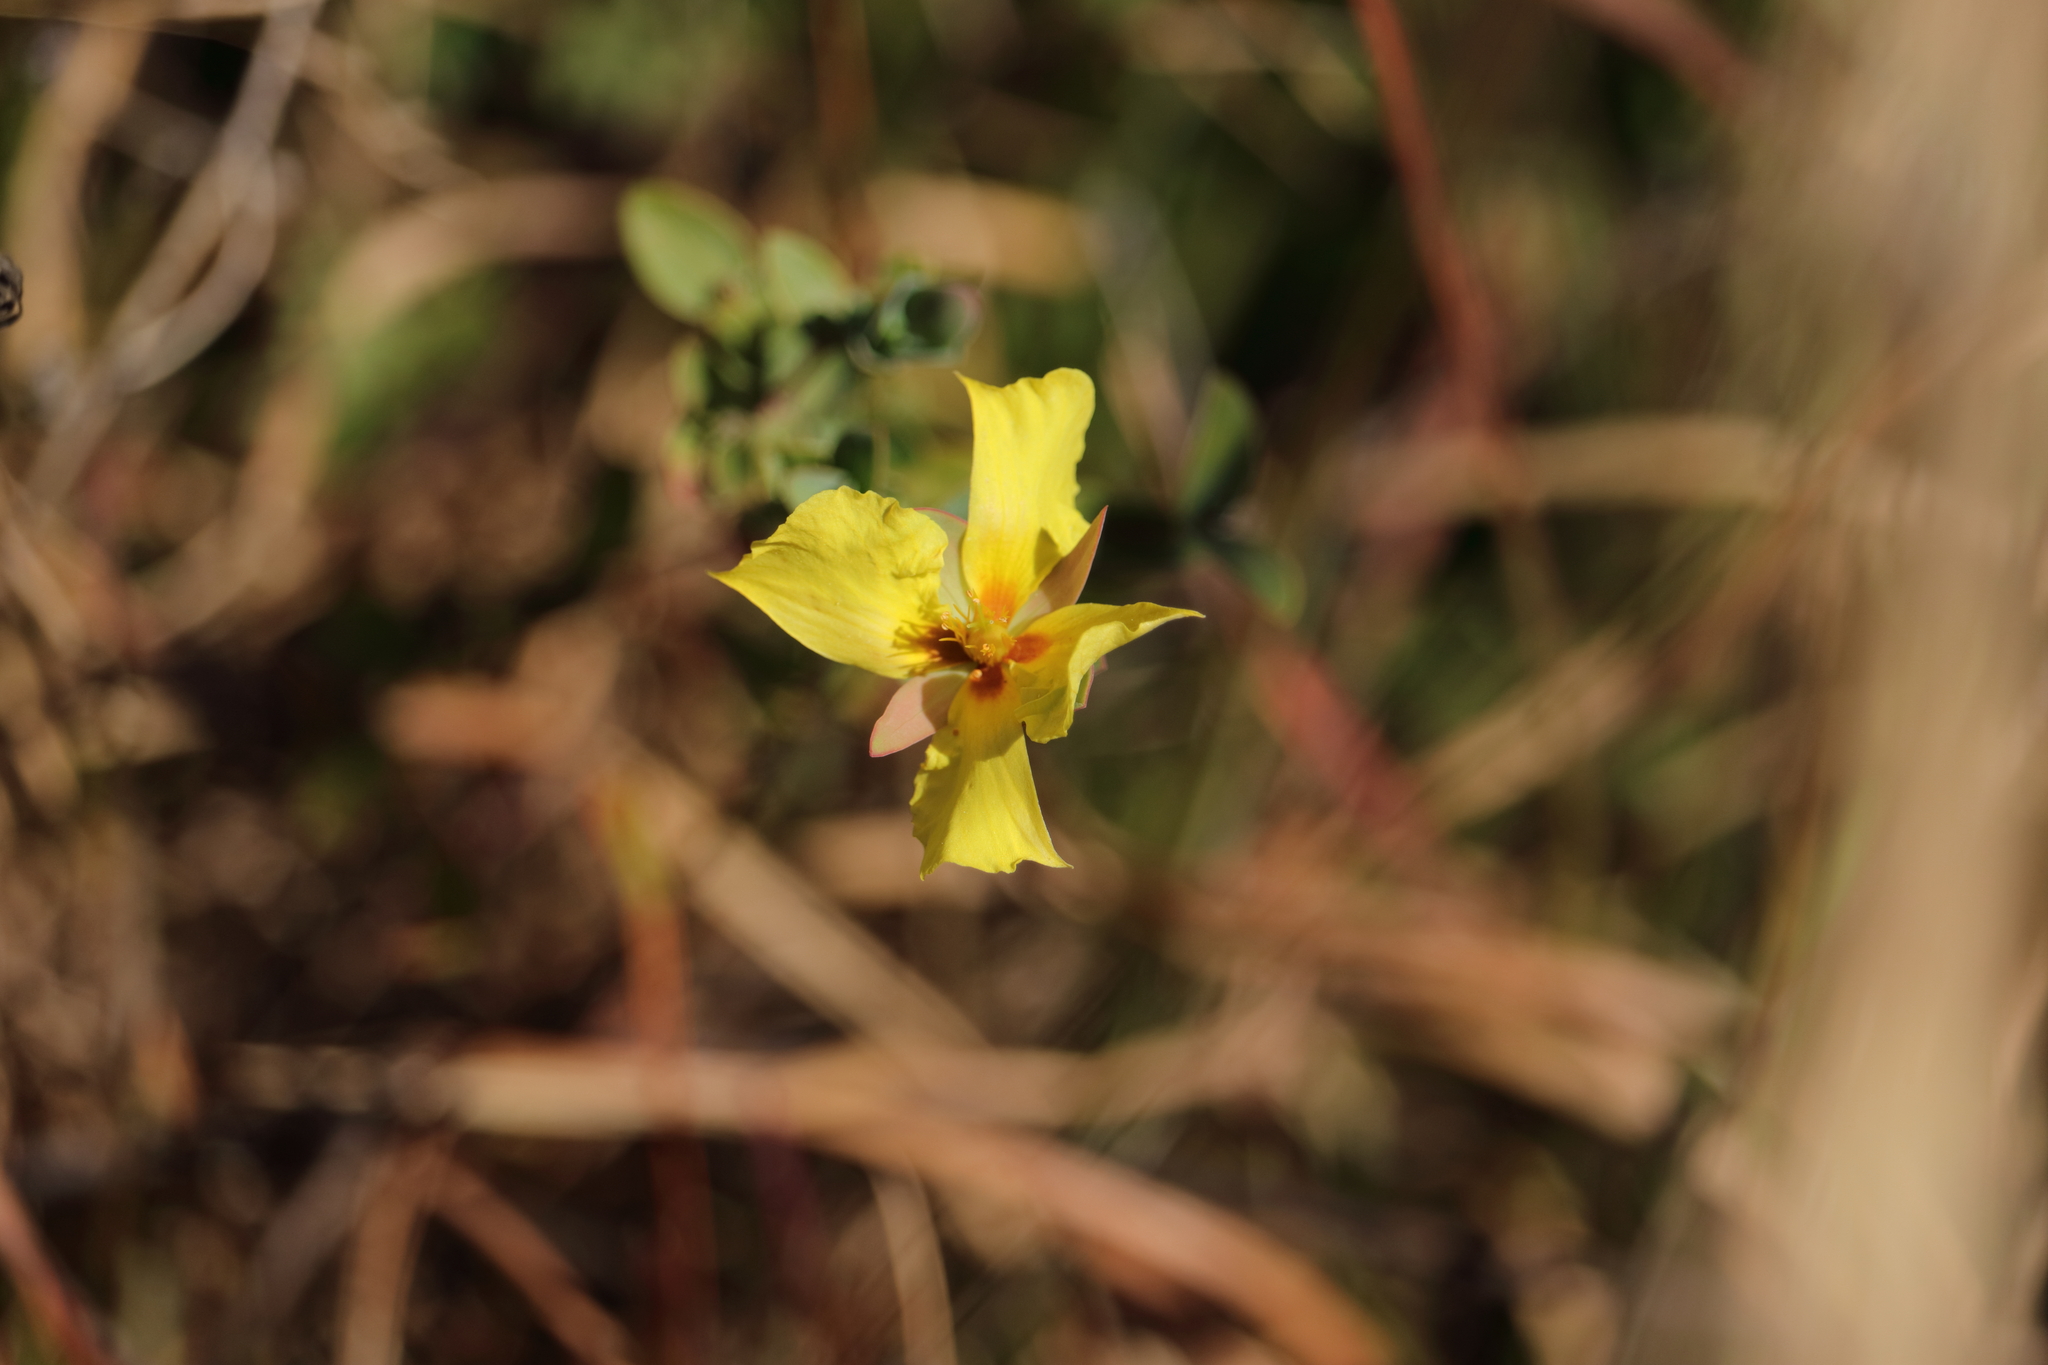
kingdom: Plantae
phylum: Tracheophyta
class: Magnoliopsida
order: Malpighiales
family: Hypericaceae
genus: Hypericum
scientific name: Hypericum tetrapetalum
